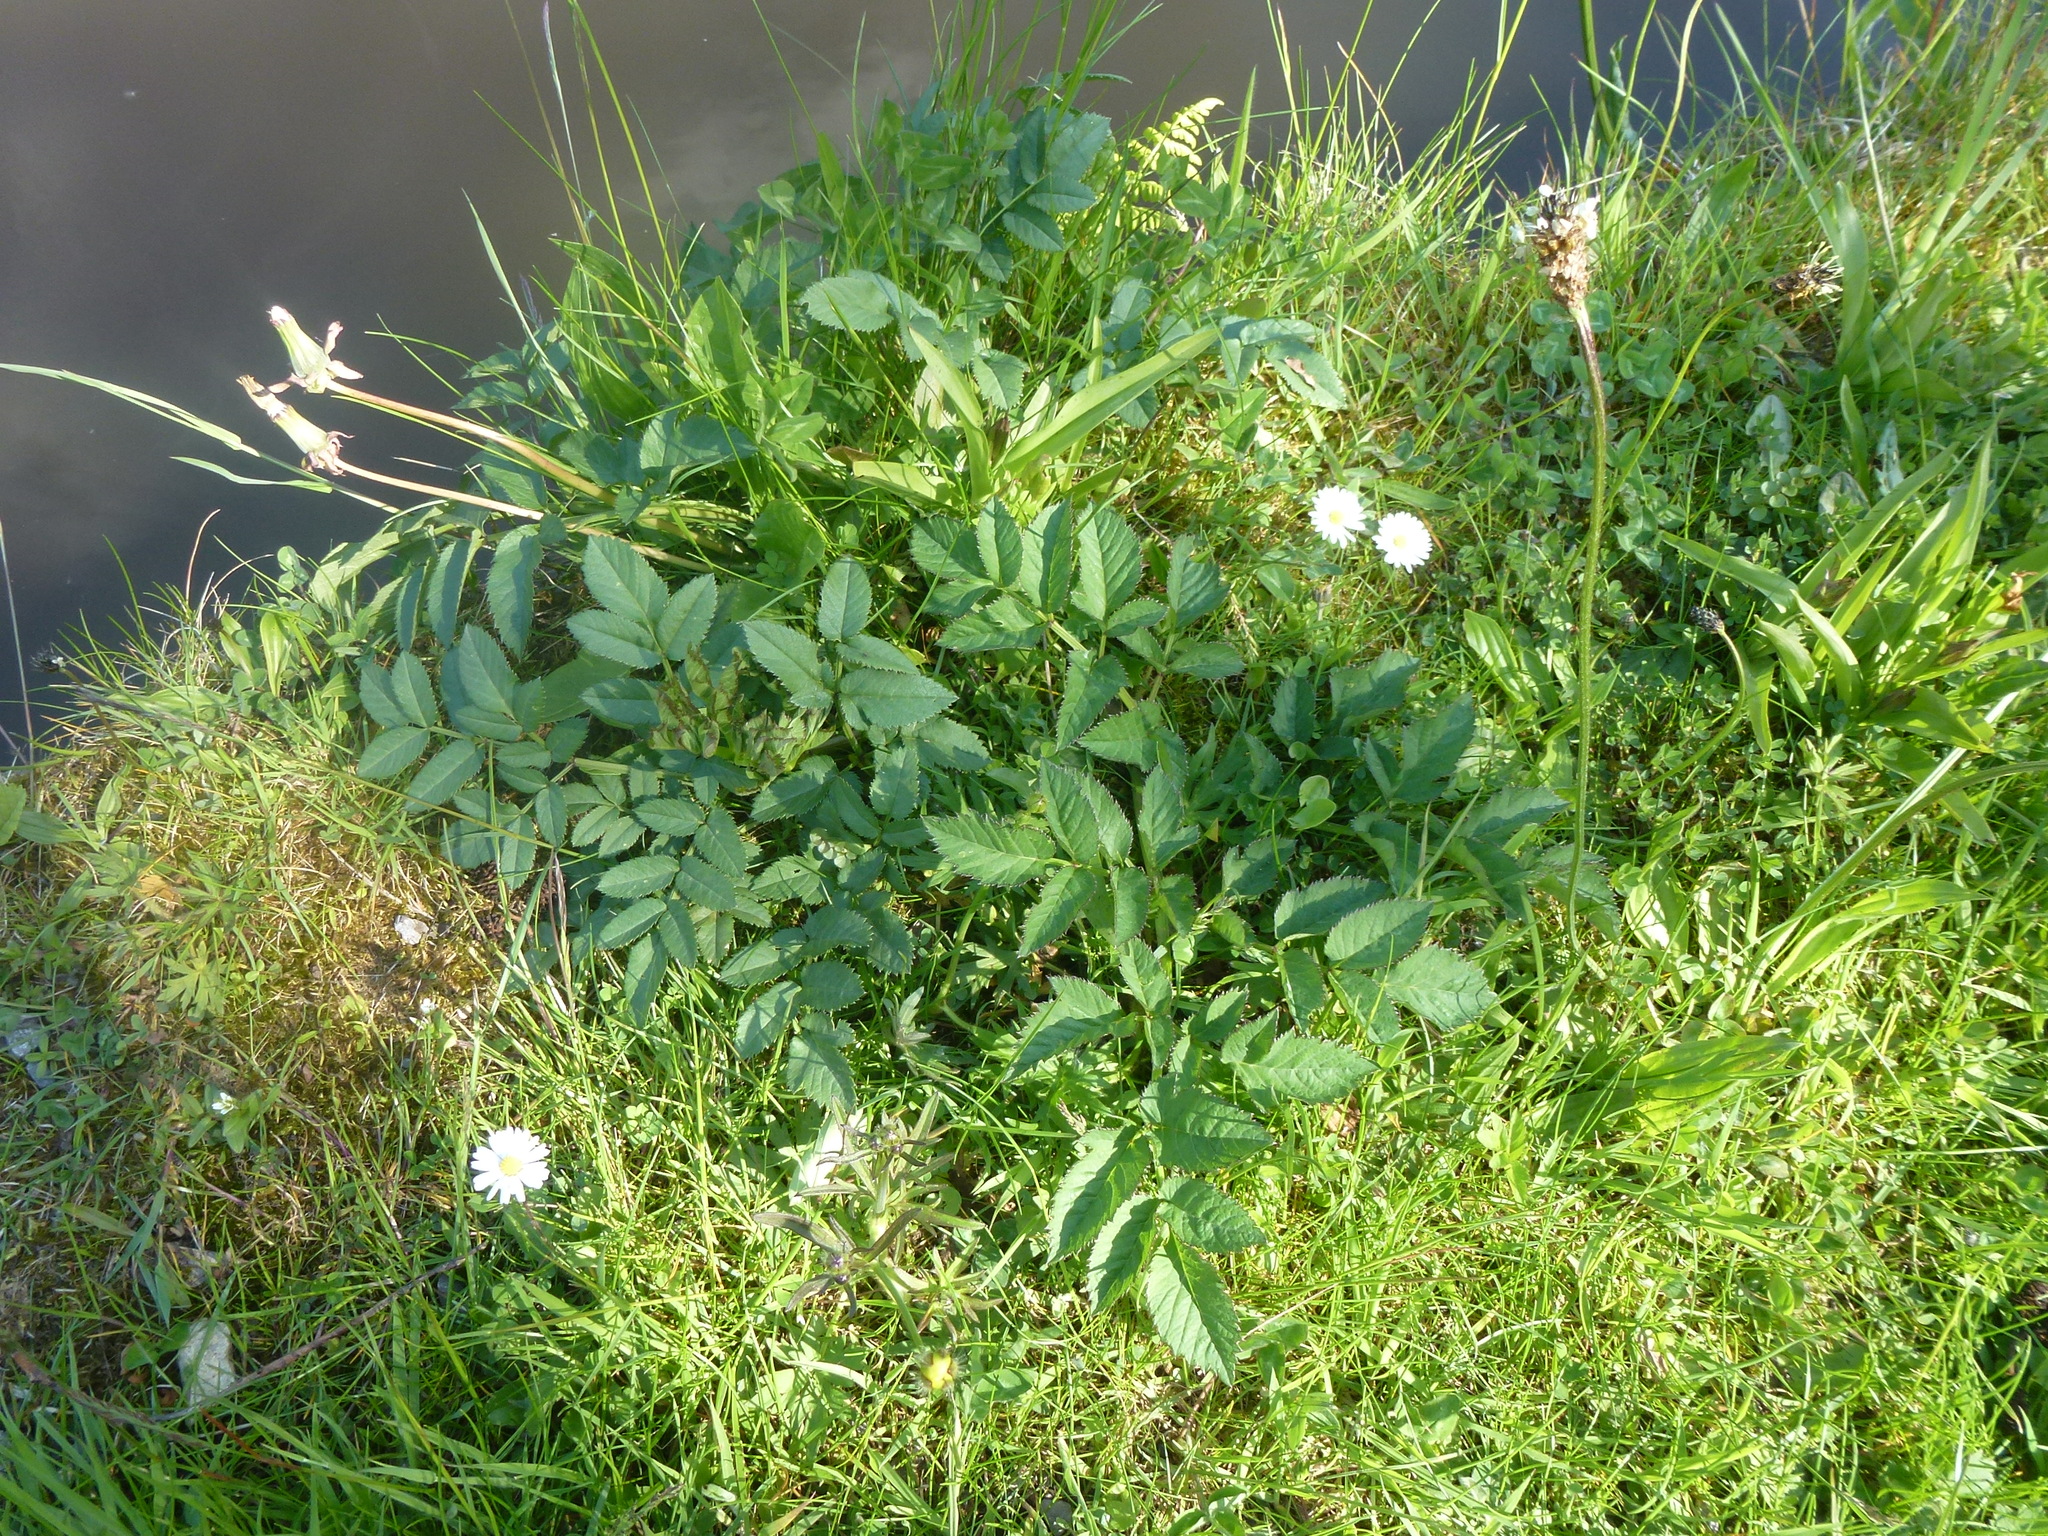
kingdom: Plantae
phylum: Tracheophyta
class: Magnoliopsida
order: Apiales
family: Apiaceae
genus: Angelica
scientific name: Angelica sylvestris
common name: Wild angelica
